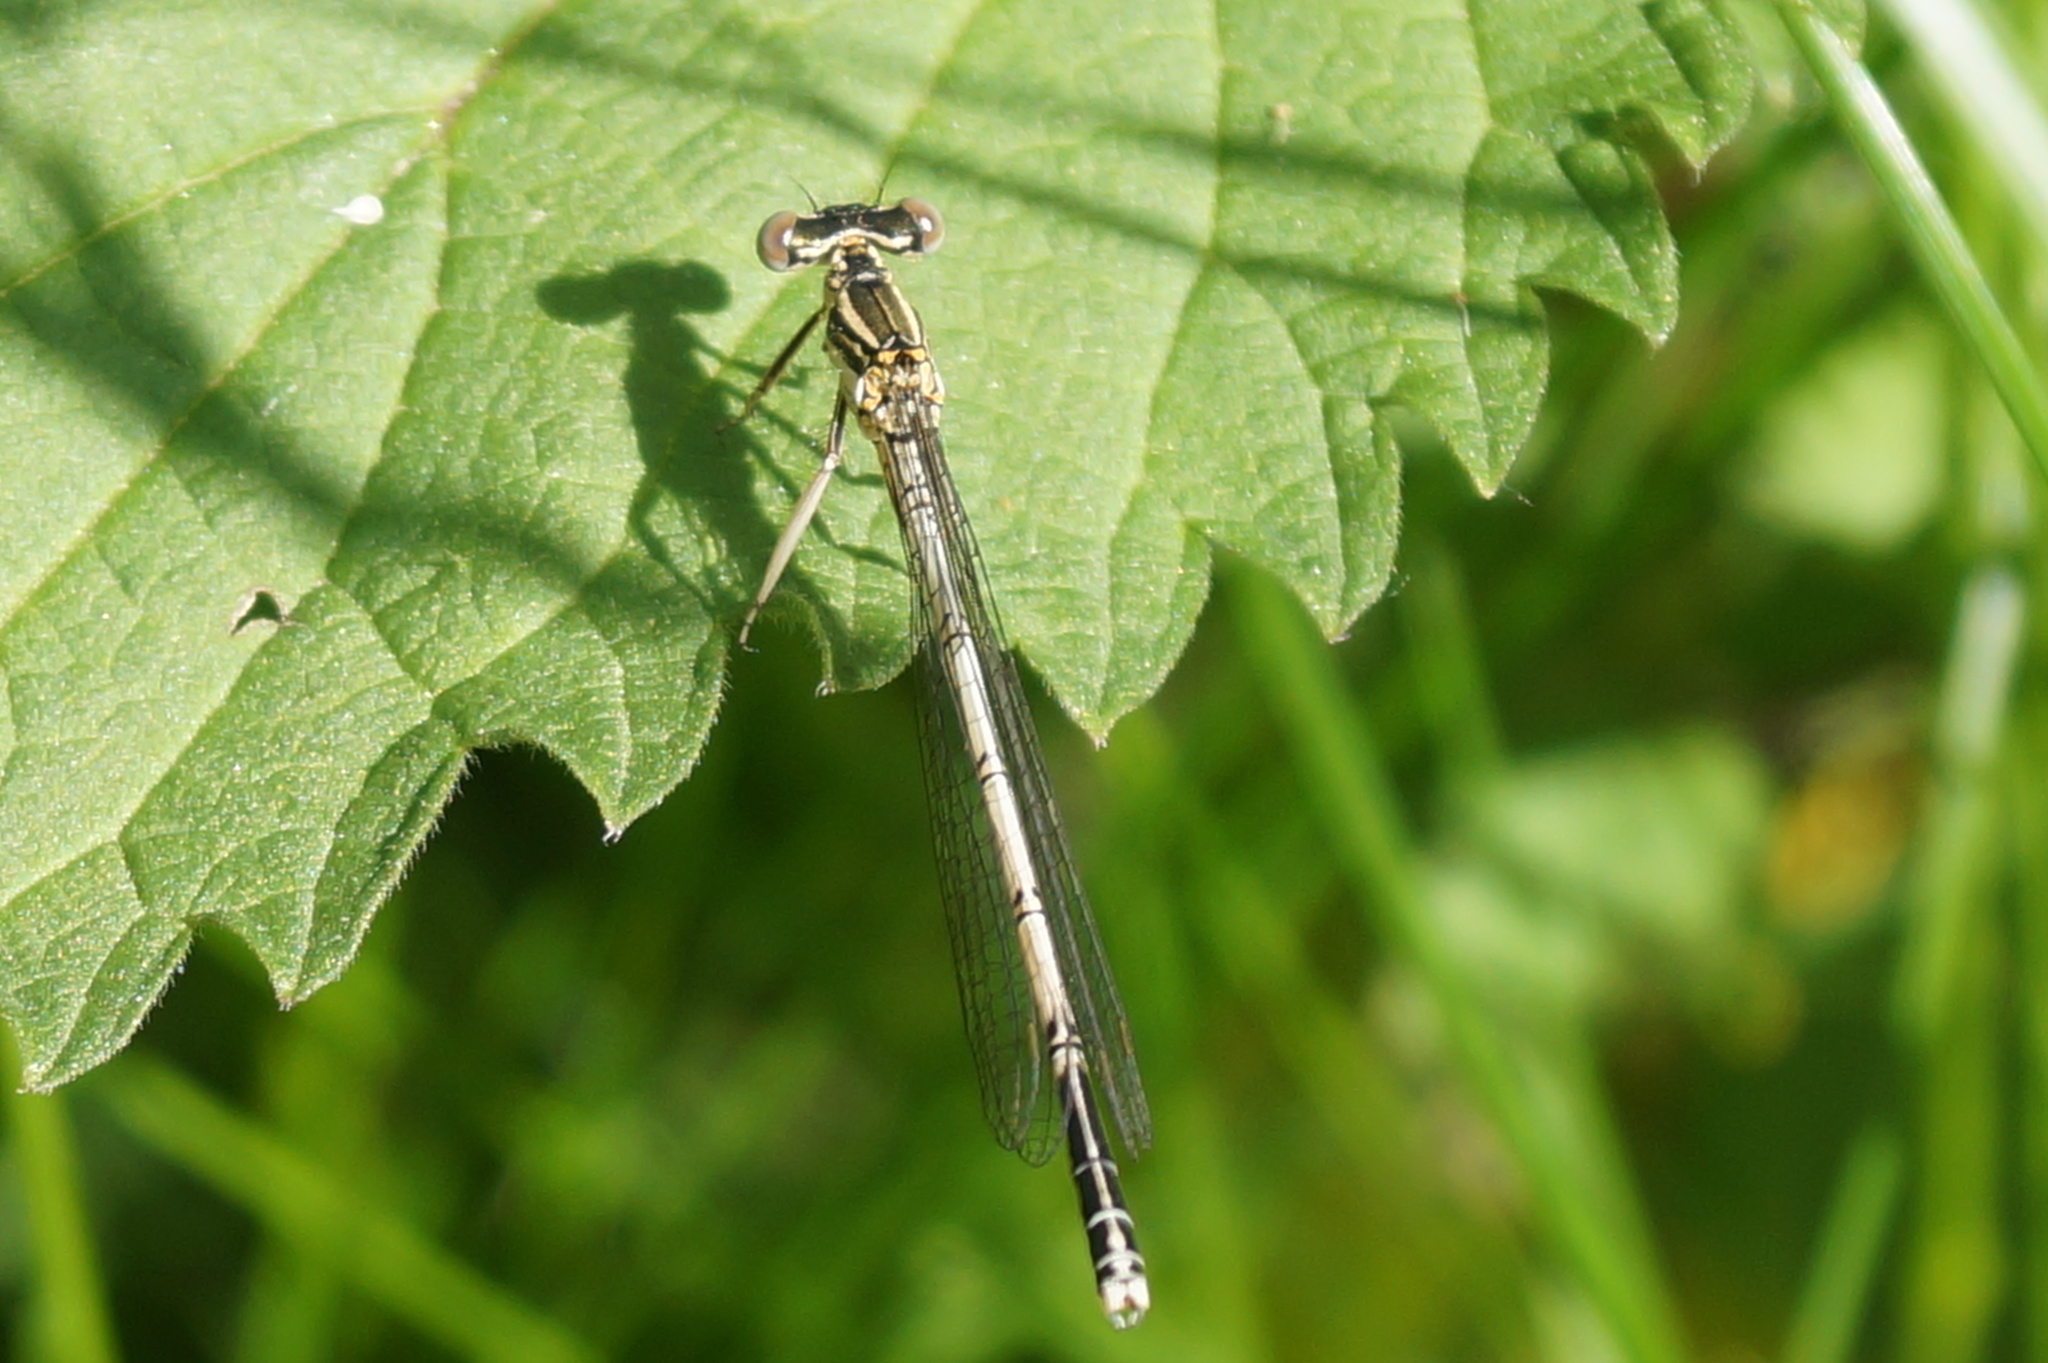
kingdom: Animalia
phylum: Arthropoda
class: Insecta
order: Odonata
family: Platycnemididae
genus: Platycnemis
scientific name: Platycnemis pennipes
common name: White-legged damselfly
